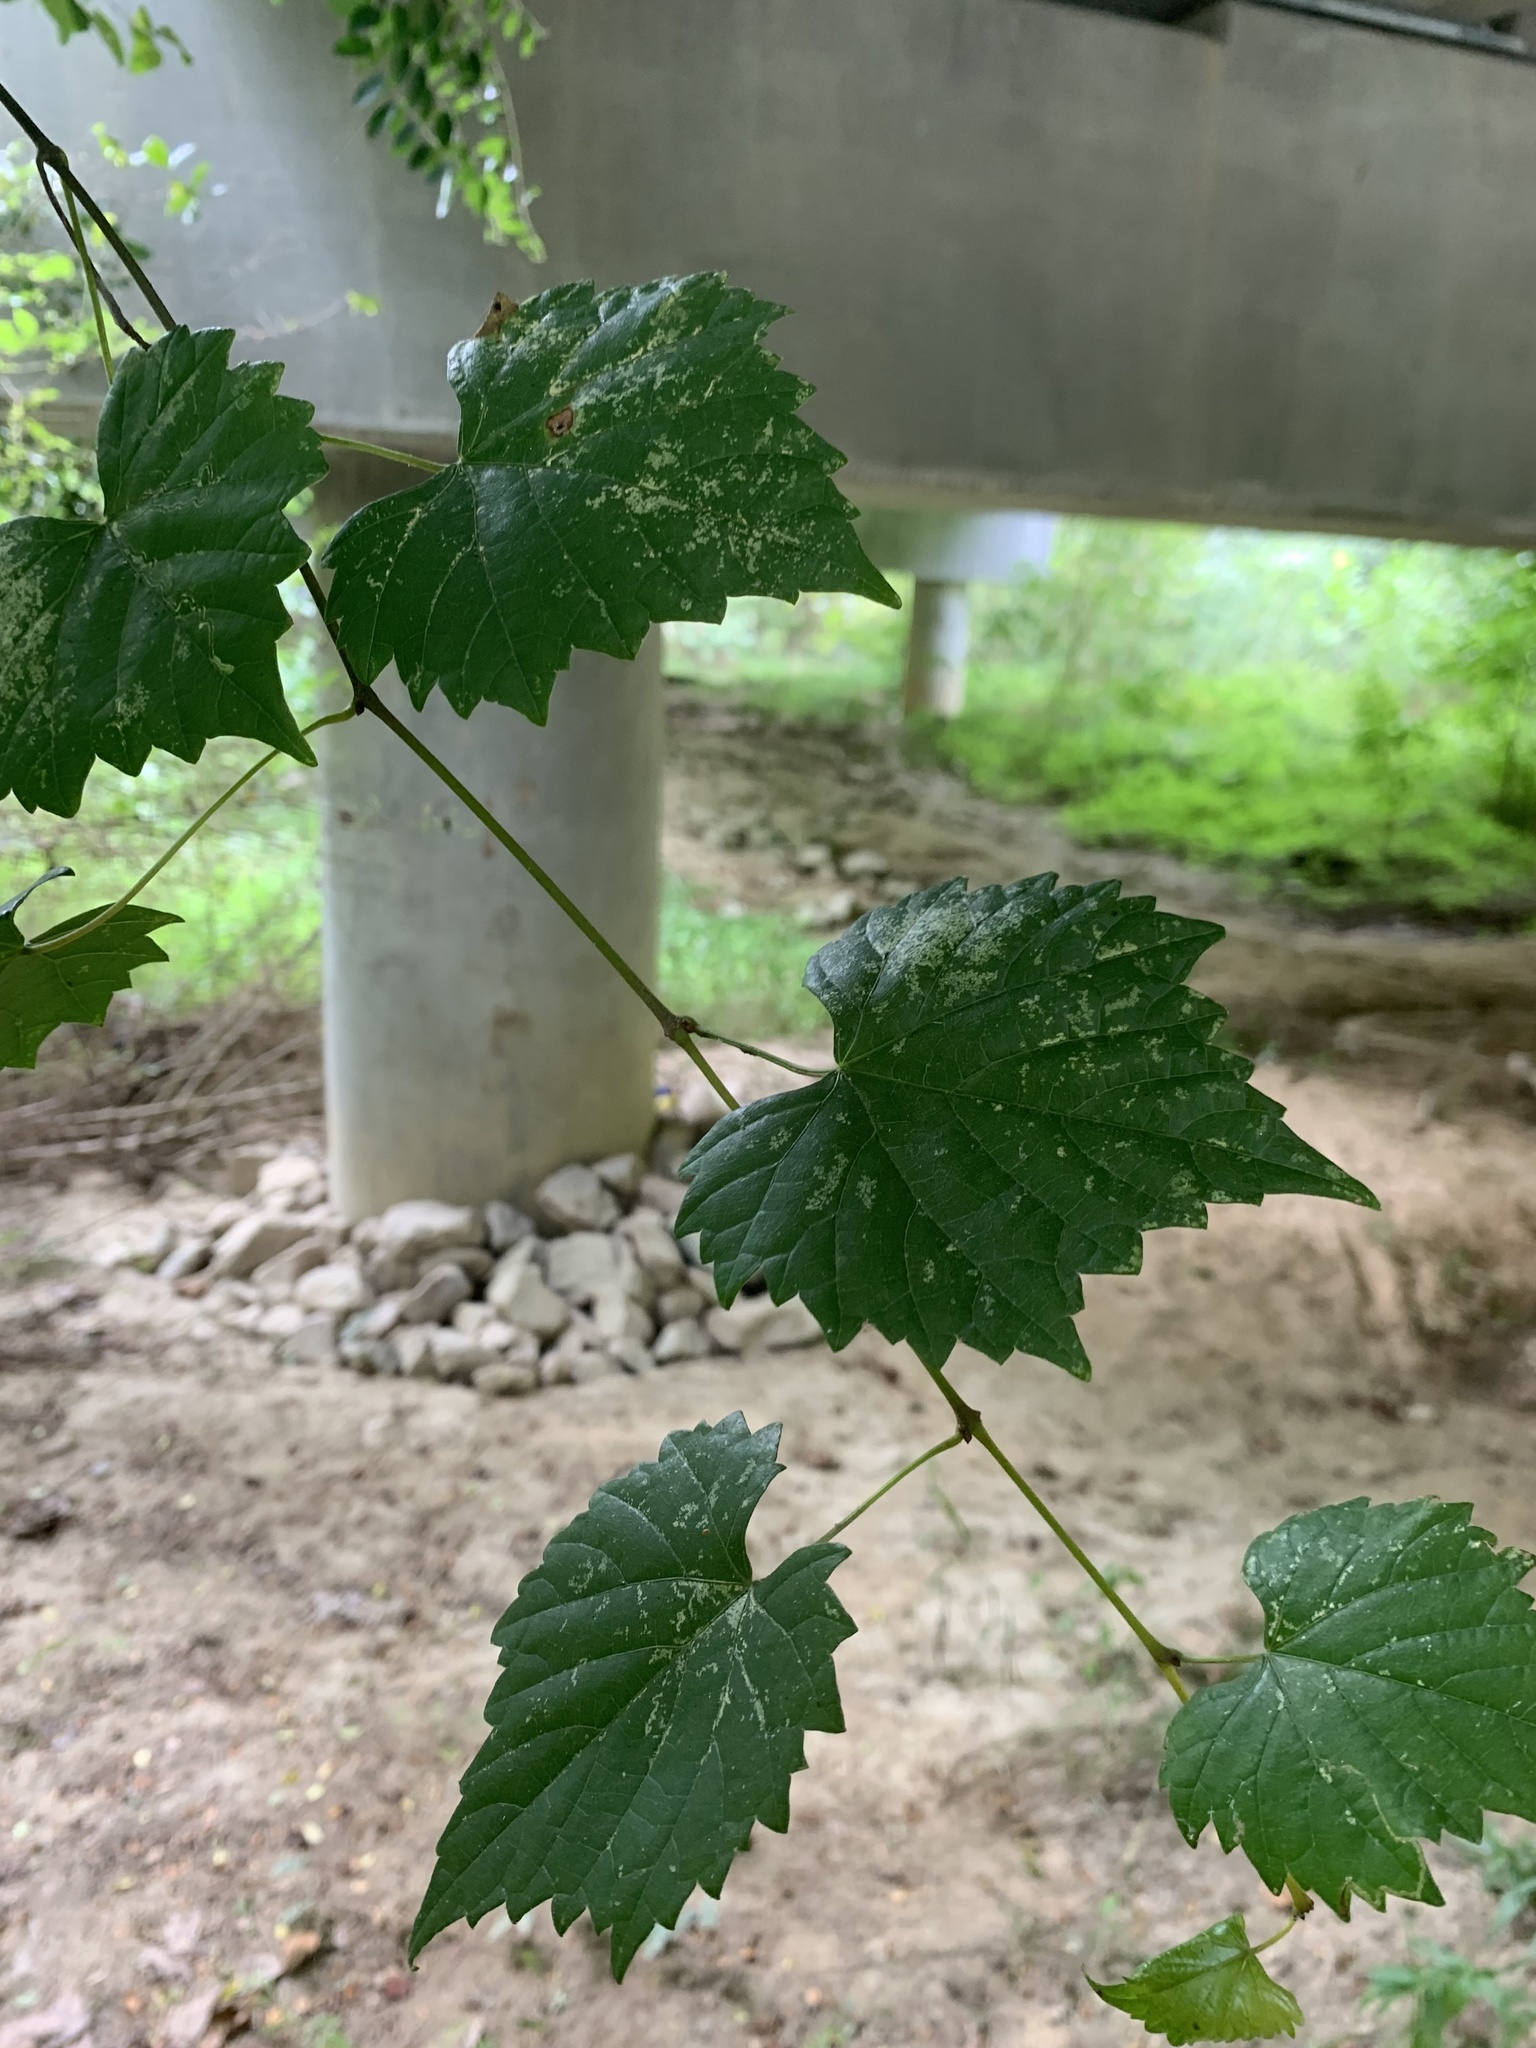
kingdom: Plantae
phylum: Tracheophyta
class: Magnoliopsida
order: Vitales
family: Vitaceae
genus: Vitis
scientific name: Vitis rotundifolia
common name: Muscadine grape
